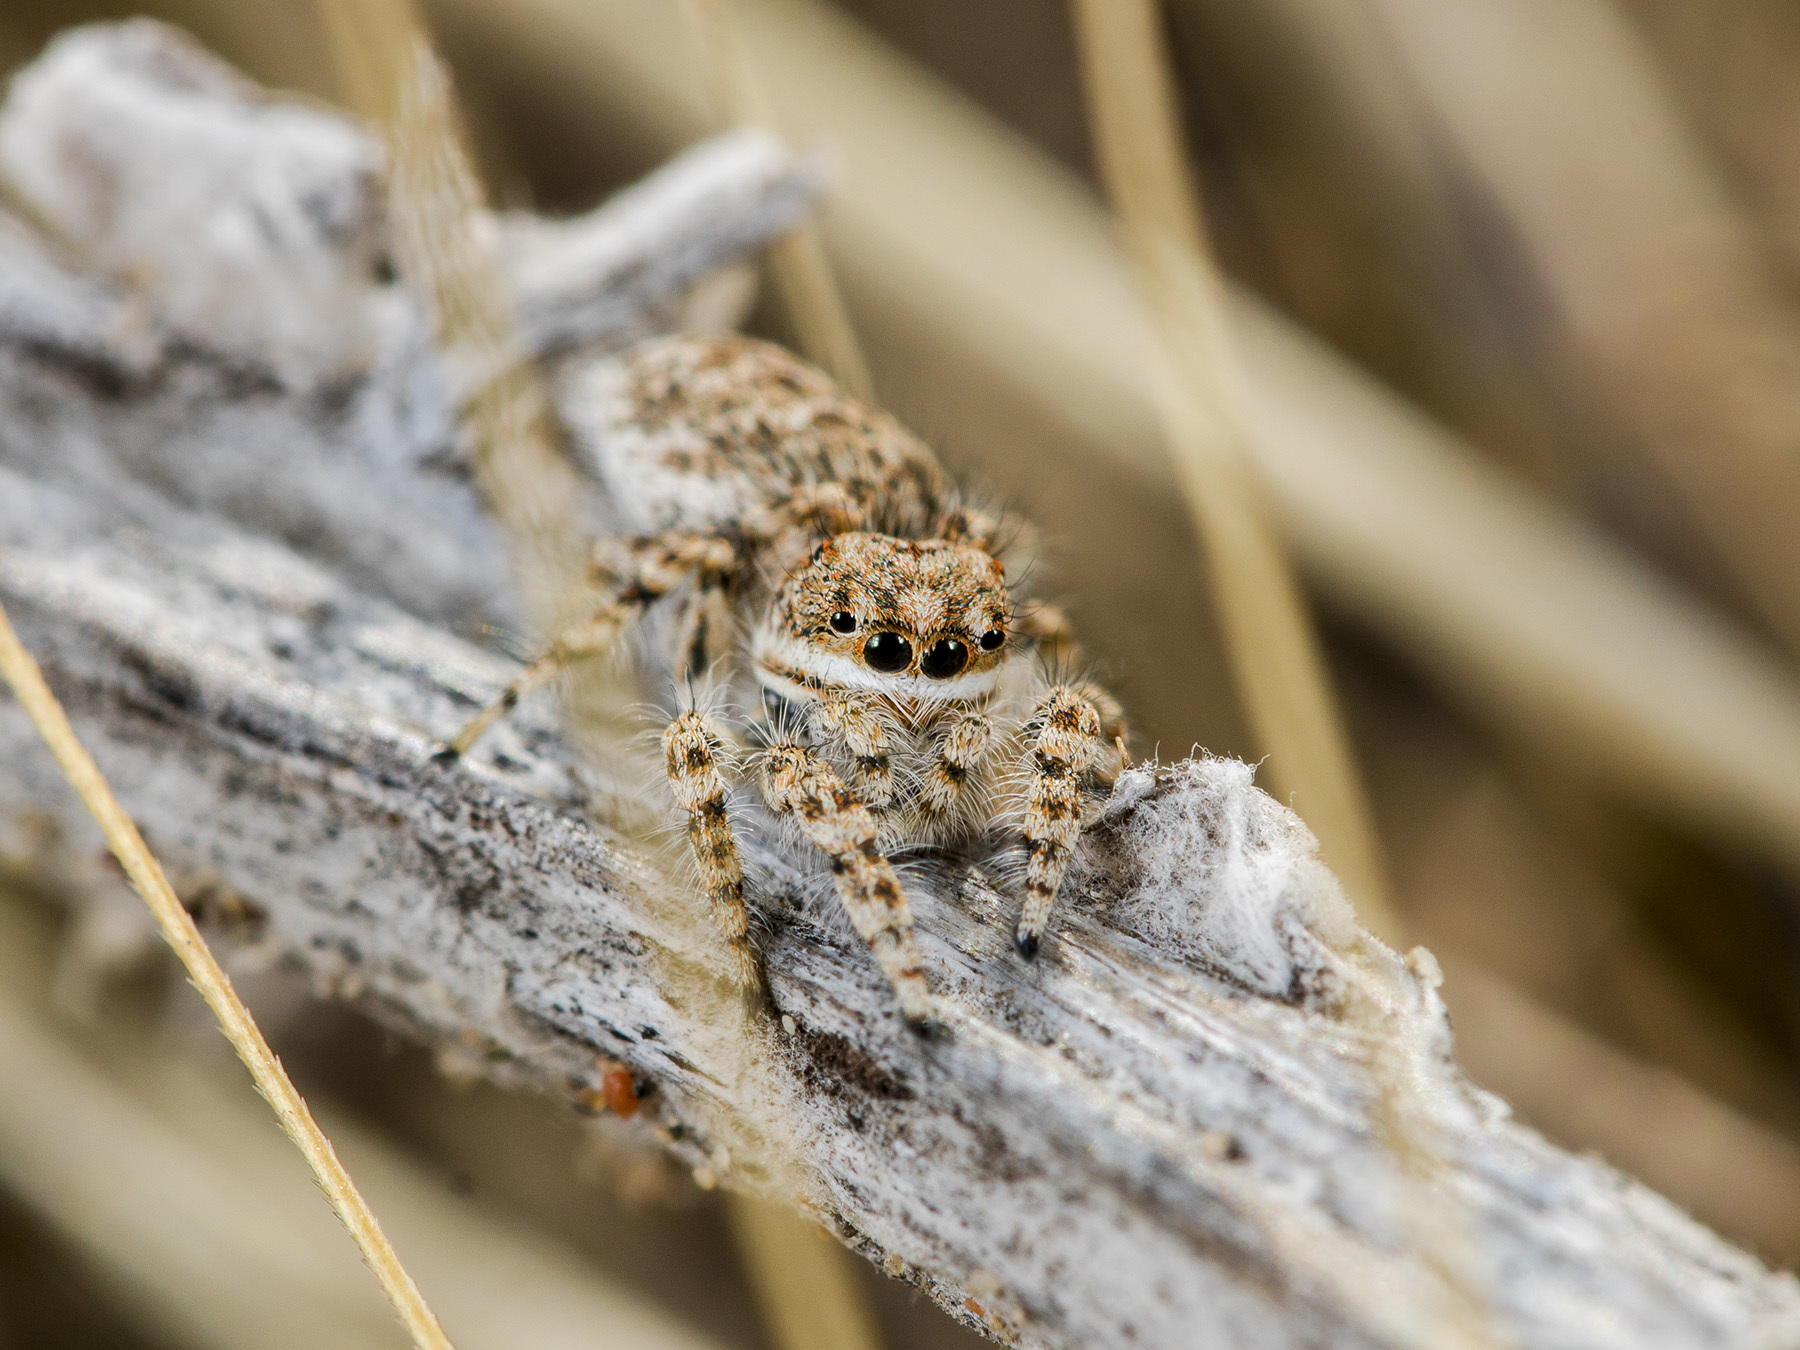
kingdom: Animalia
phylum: Arthropoda
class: Arachnida
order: Araneae
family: Salticidae
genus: Yllenus
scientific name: Yllenus uiguricus
